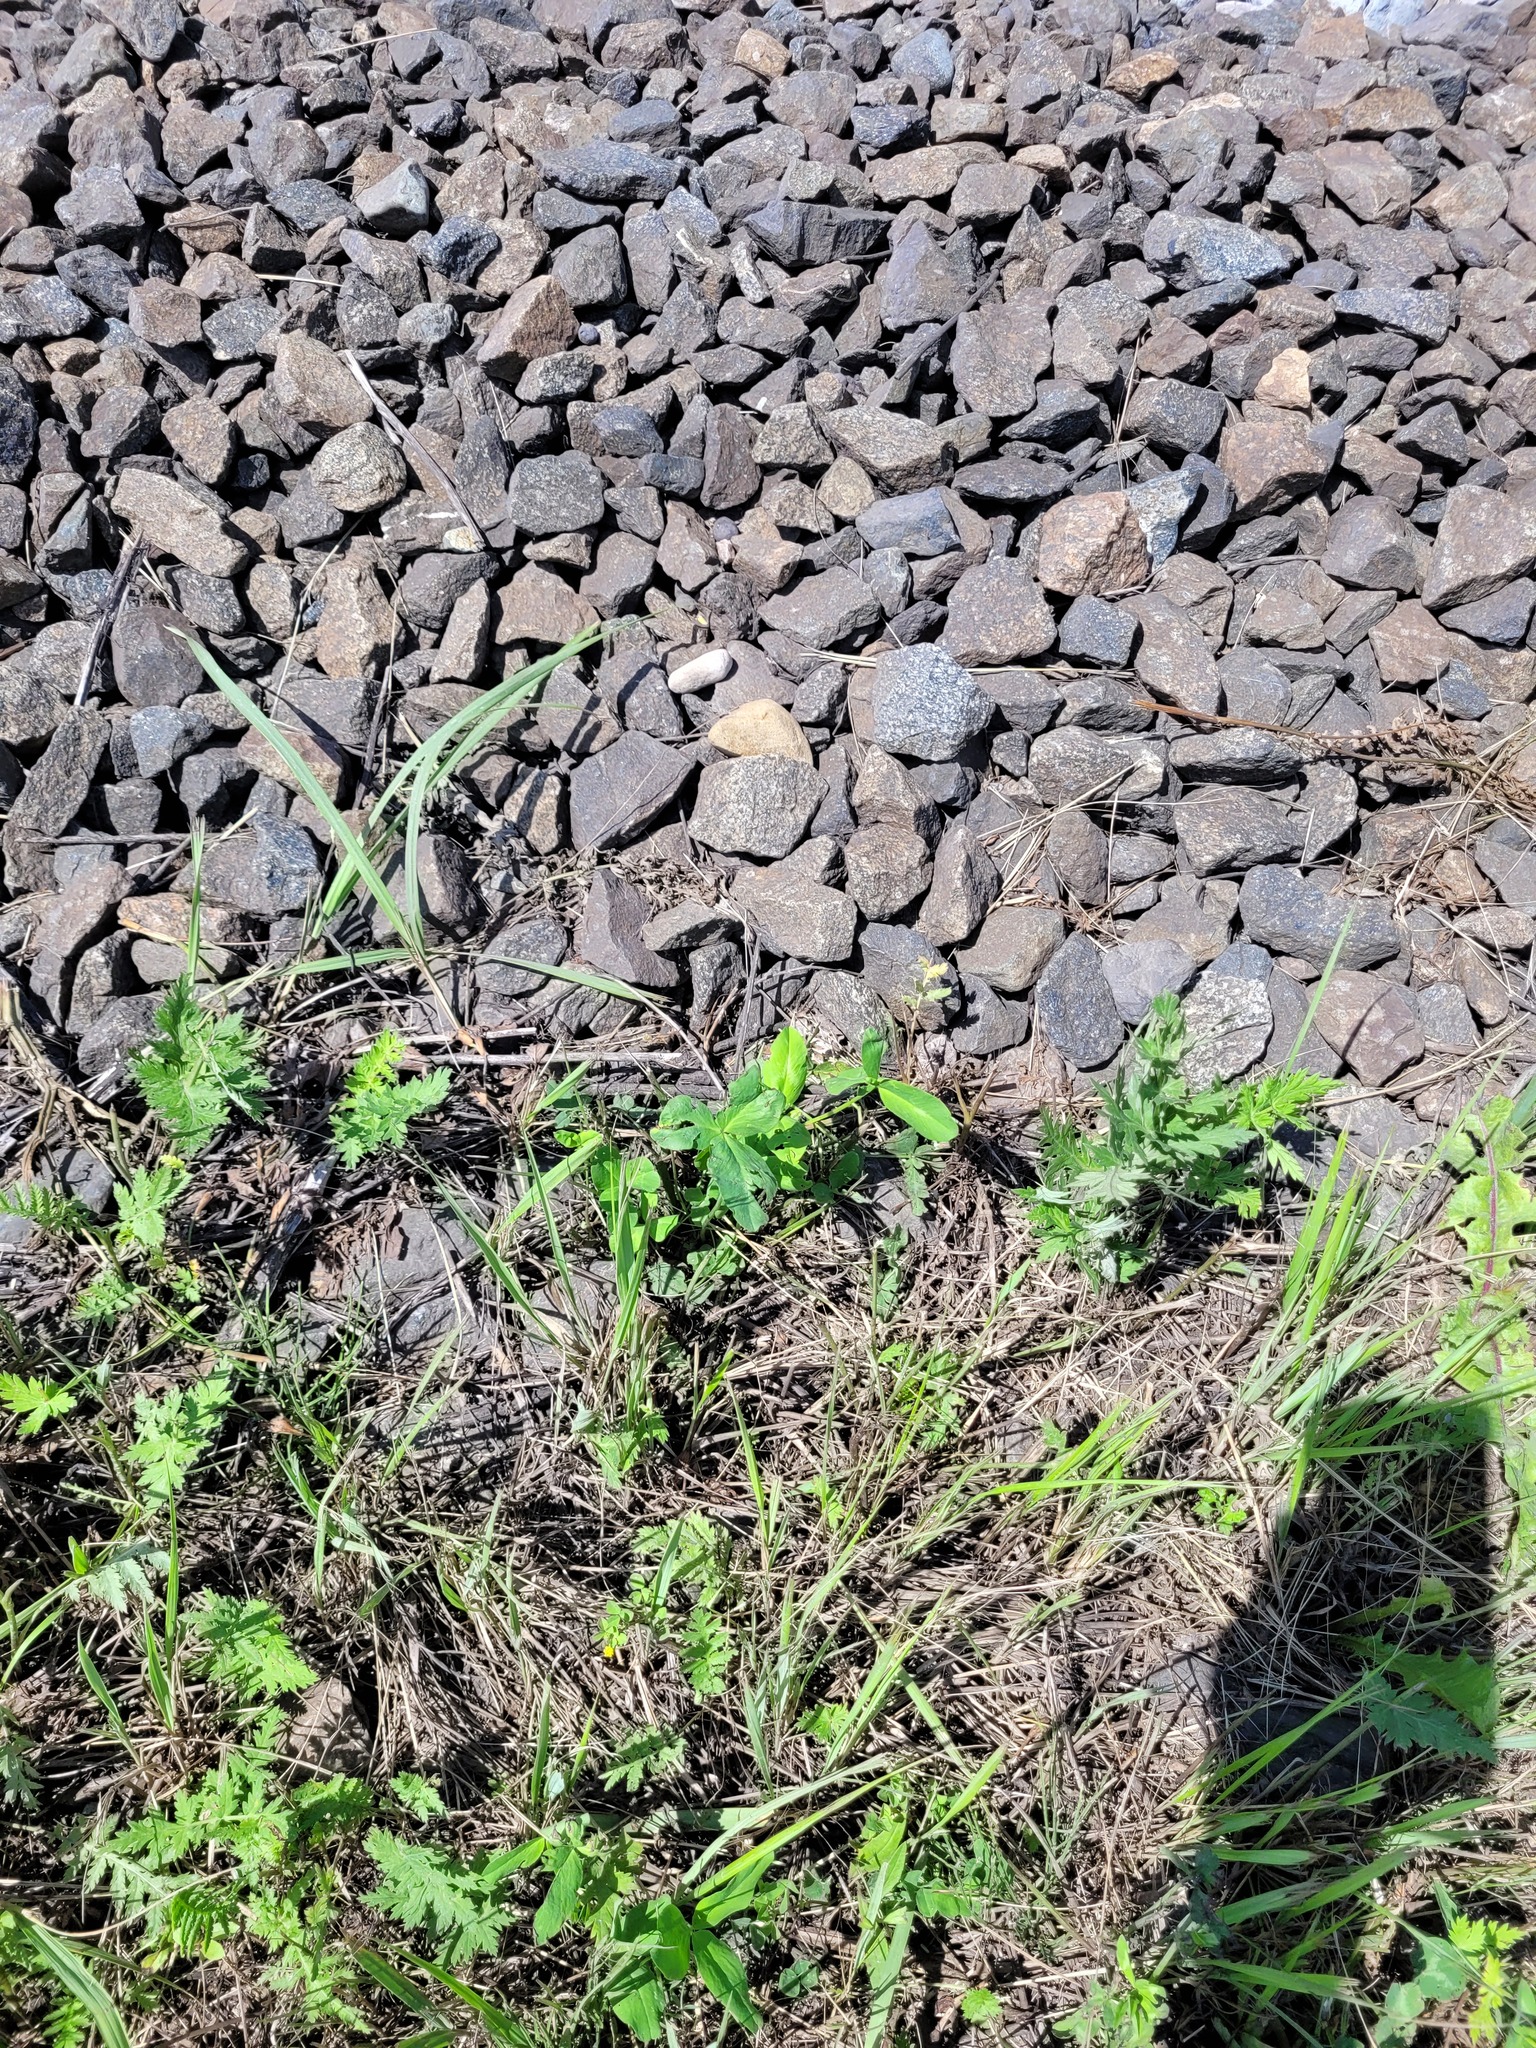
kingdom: Plantae
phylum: Tracheophyta
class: Magnoliopsida
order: Fabales
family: Fabaceae
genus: Trifolium
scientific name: Trifolium pratense
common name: Red clover
